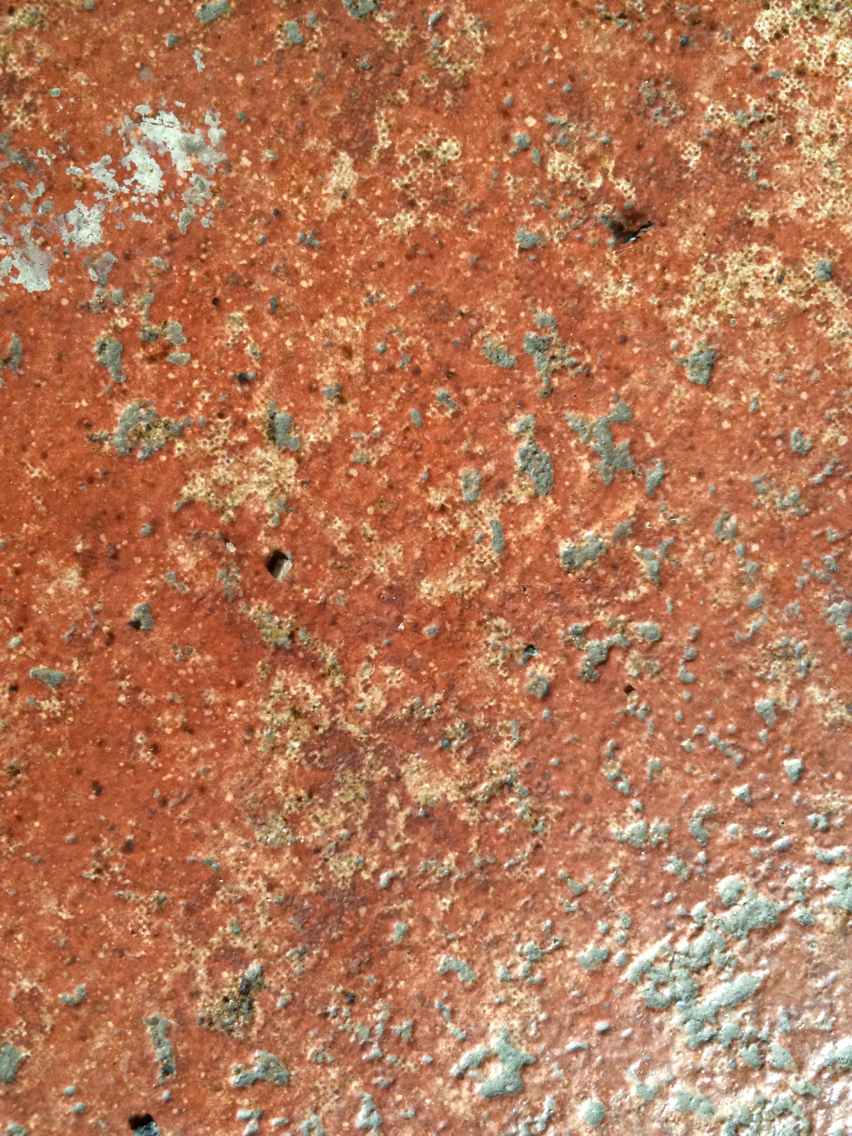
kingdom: Animalia
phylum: Arthropoda
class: Insecta
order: Hymenoptera
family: Formicidae
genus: Tapinoma
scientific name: Tapinoma sessile
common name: Odorous house ant
